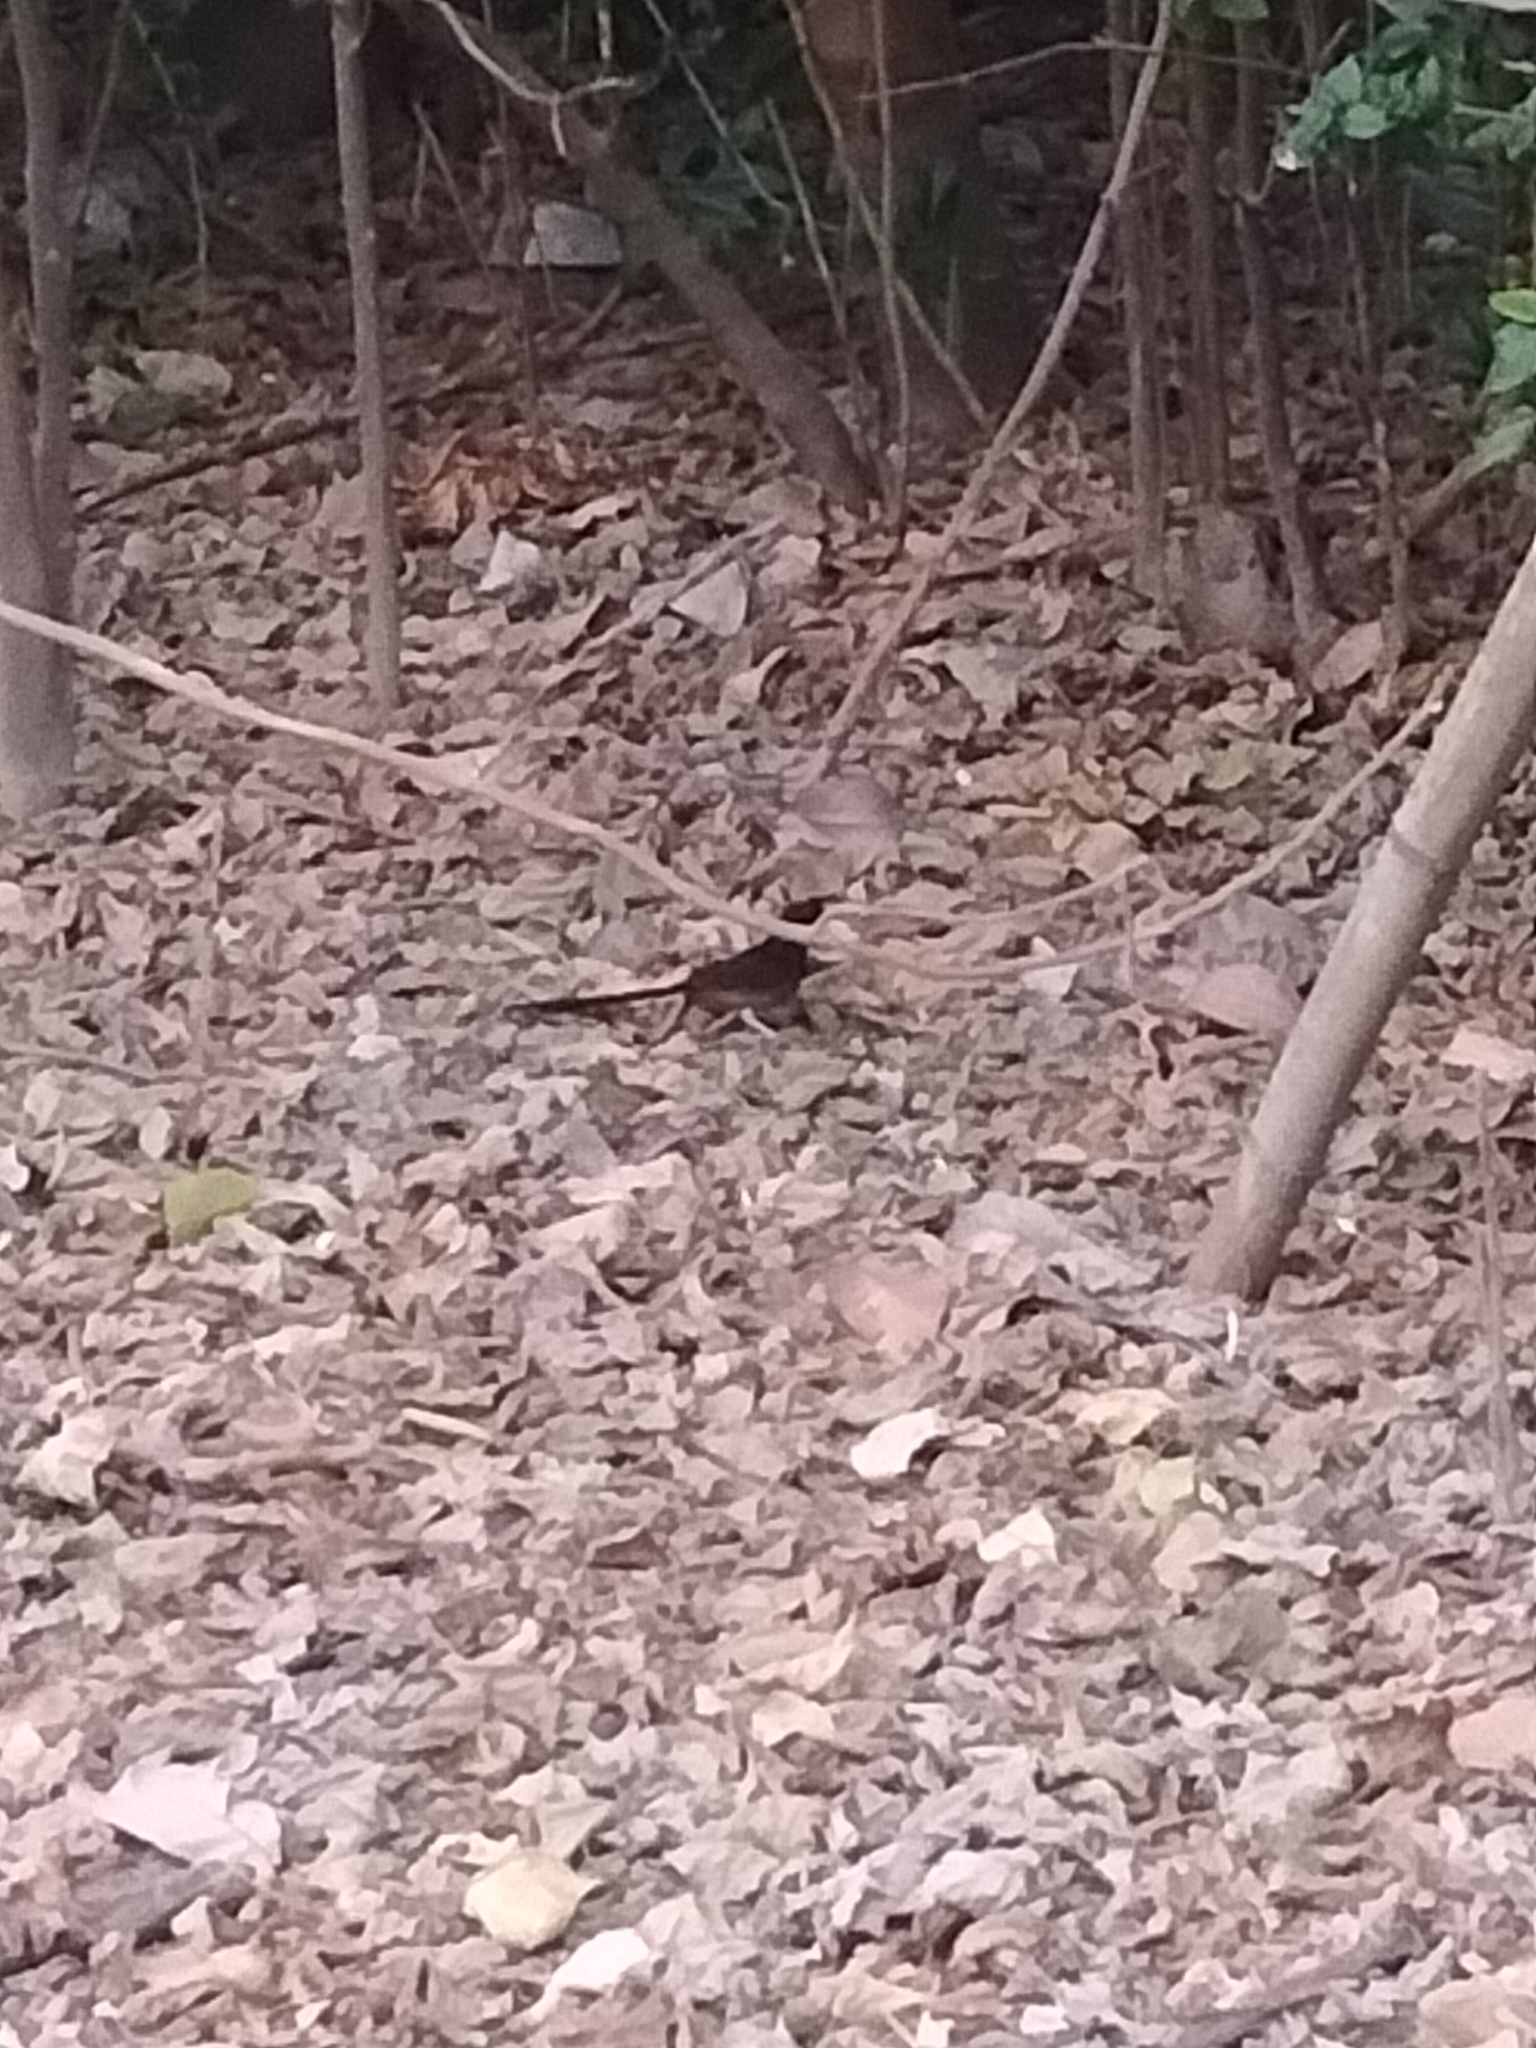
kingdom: Animalia
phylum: Chordata
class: Aves
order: Passeriformes
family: Muscicapidae
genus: Copsychus
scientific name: Copsychus malabaricus
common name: White-rumped shama
